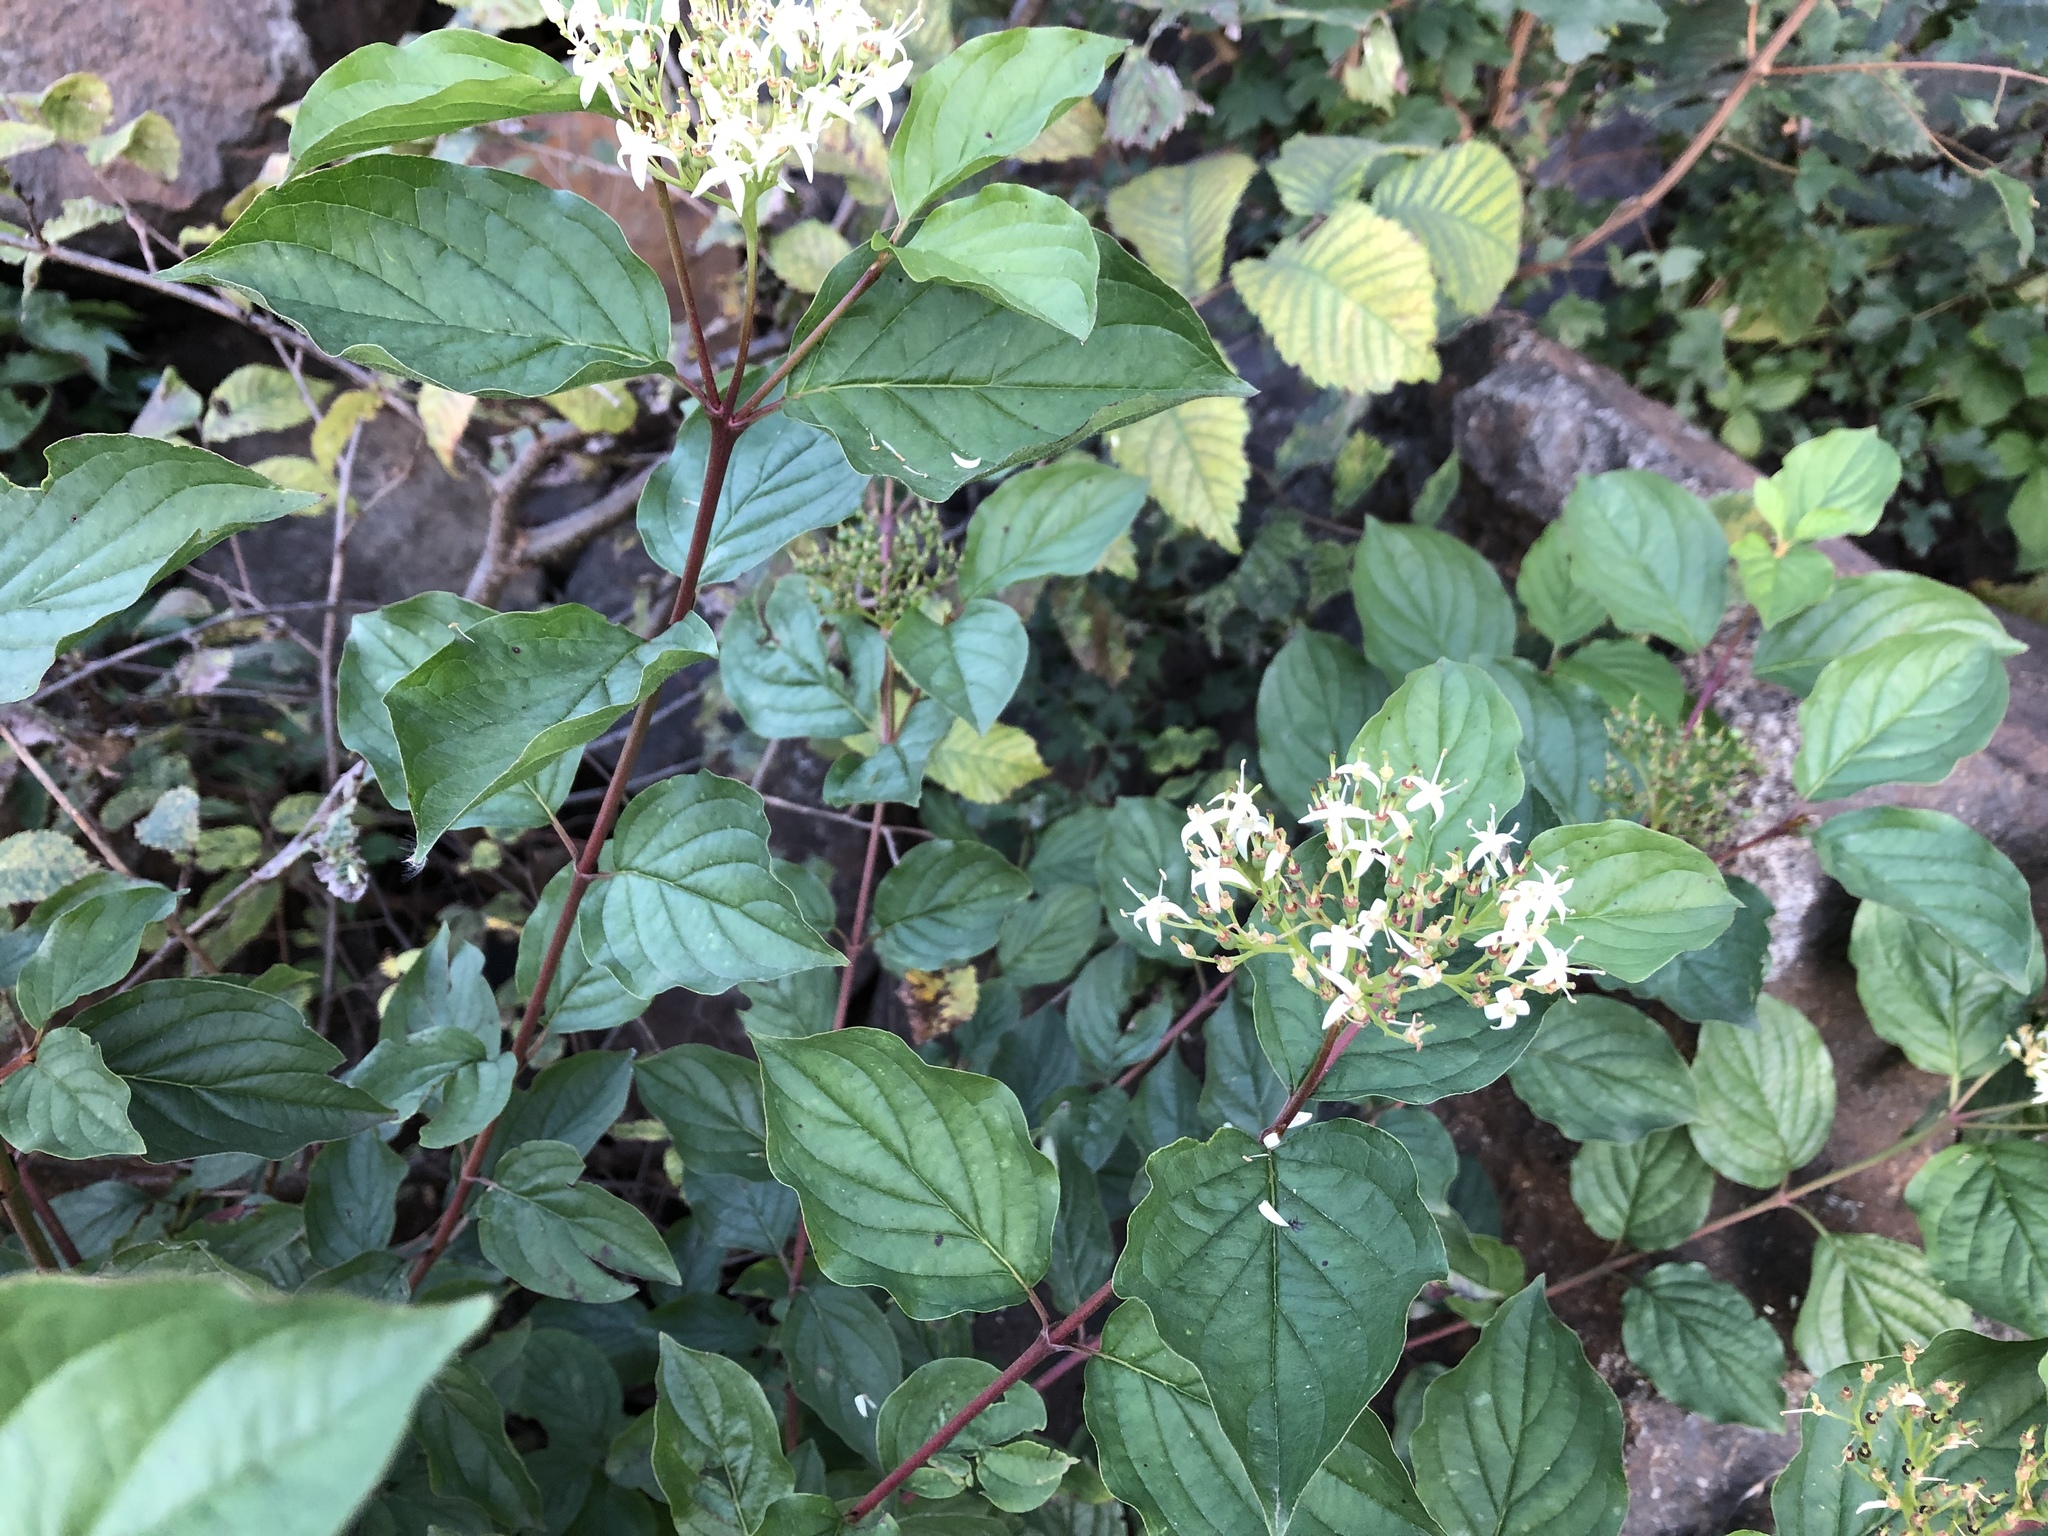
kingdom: Plantae
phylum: Tracheophyta
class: Magnoliopsida
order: Cornales
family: Cornaceae
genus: Cornus
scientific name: Cornus sanguinea
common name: Dogwood
